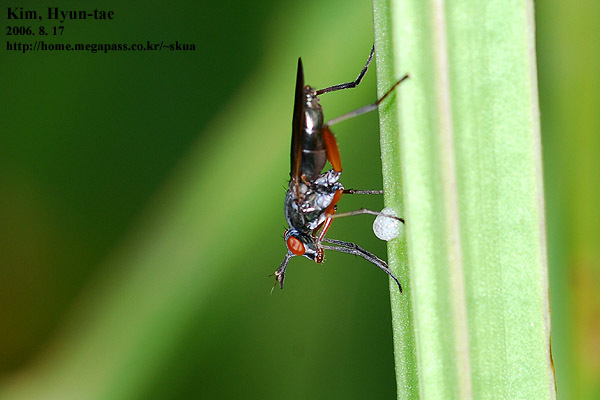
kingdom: Animalia
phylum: Arthropoda
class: Insecta
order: Diptera
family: Sciomyzidae
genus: Sepedon
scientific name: Sepedon sphegea
